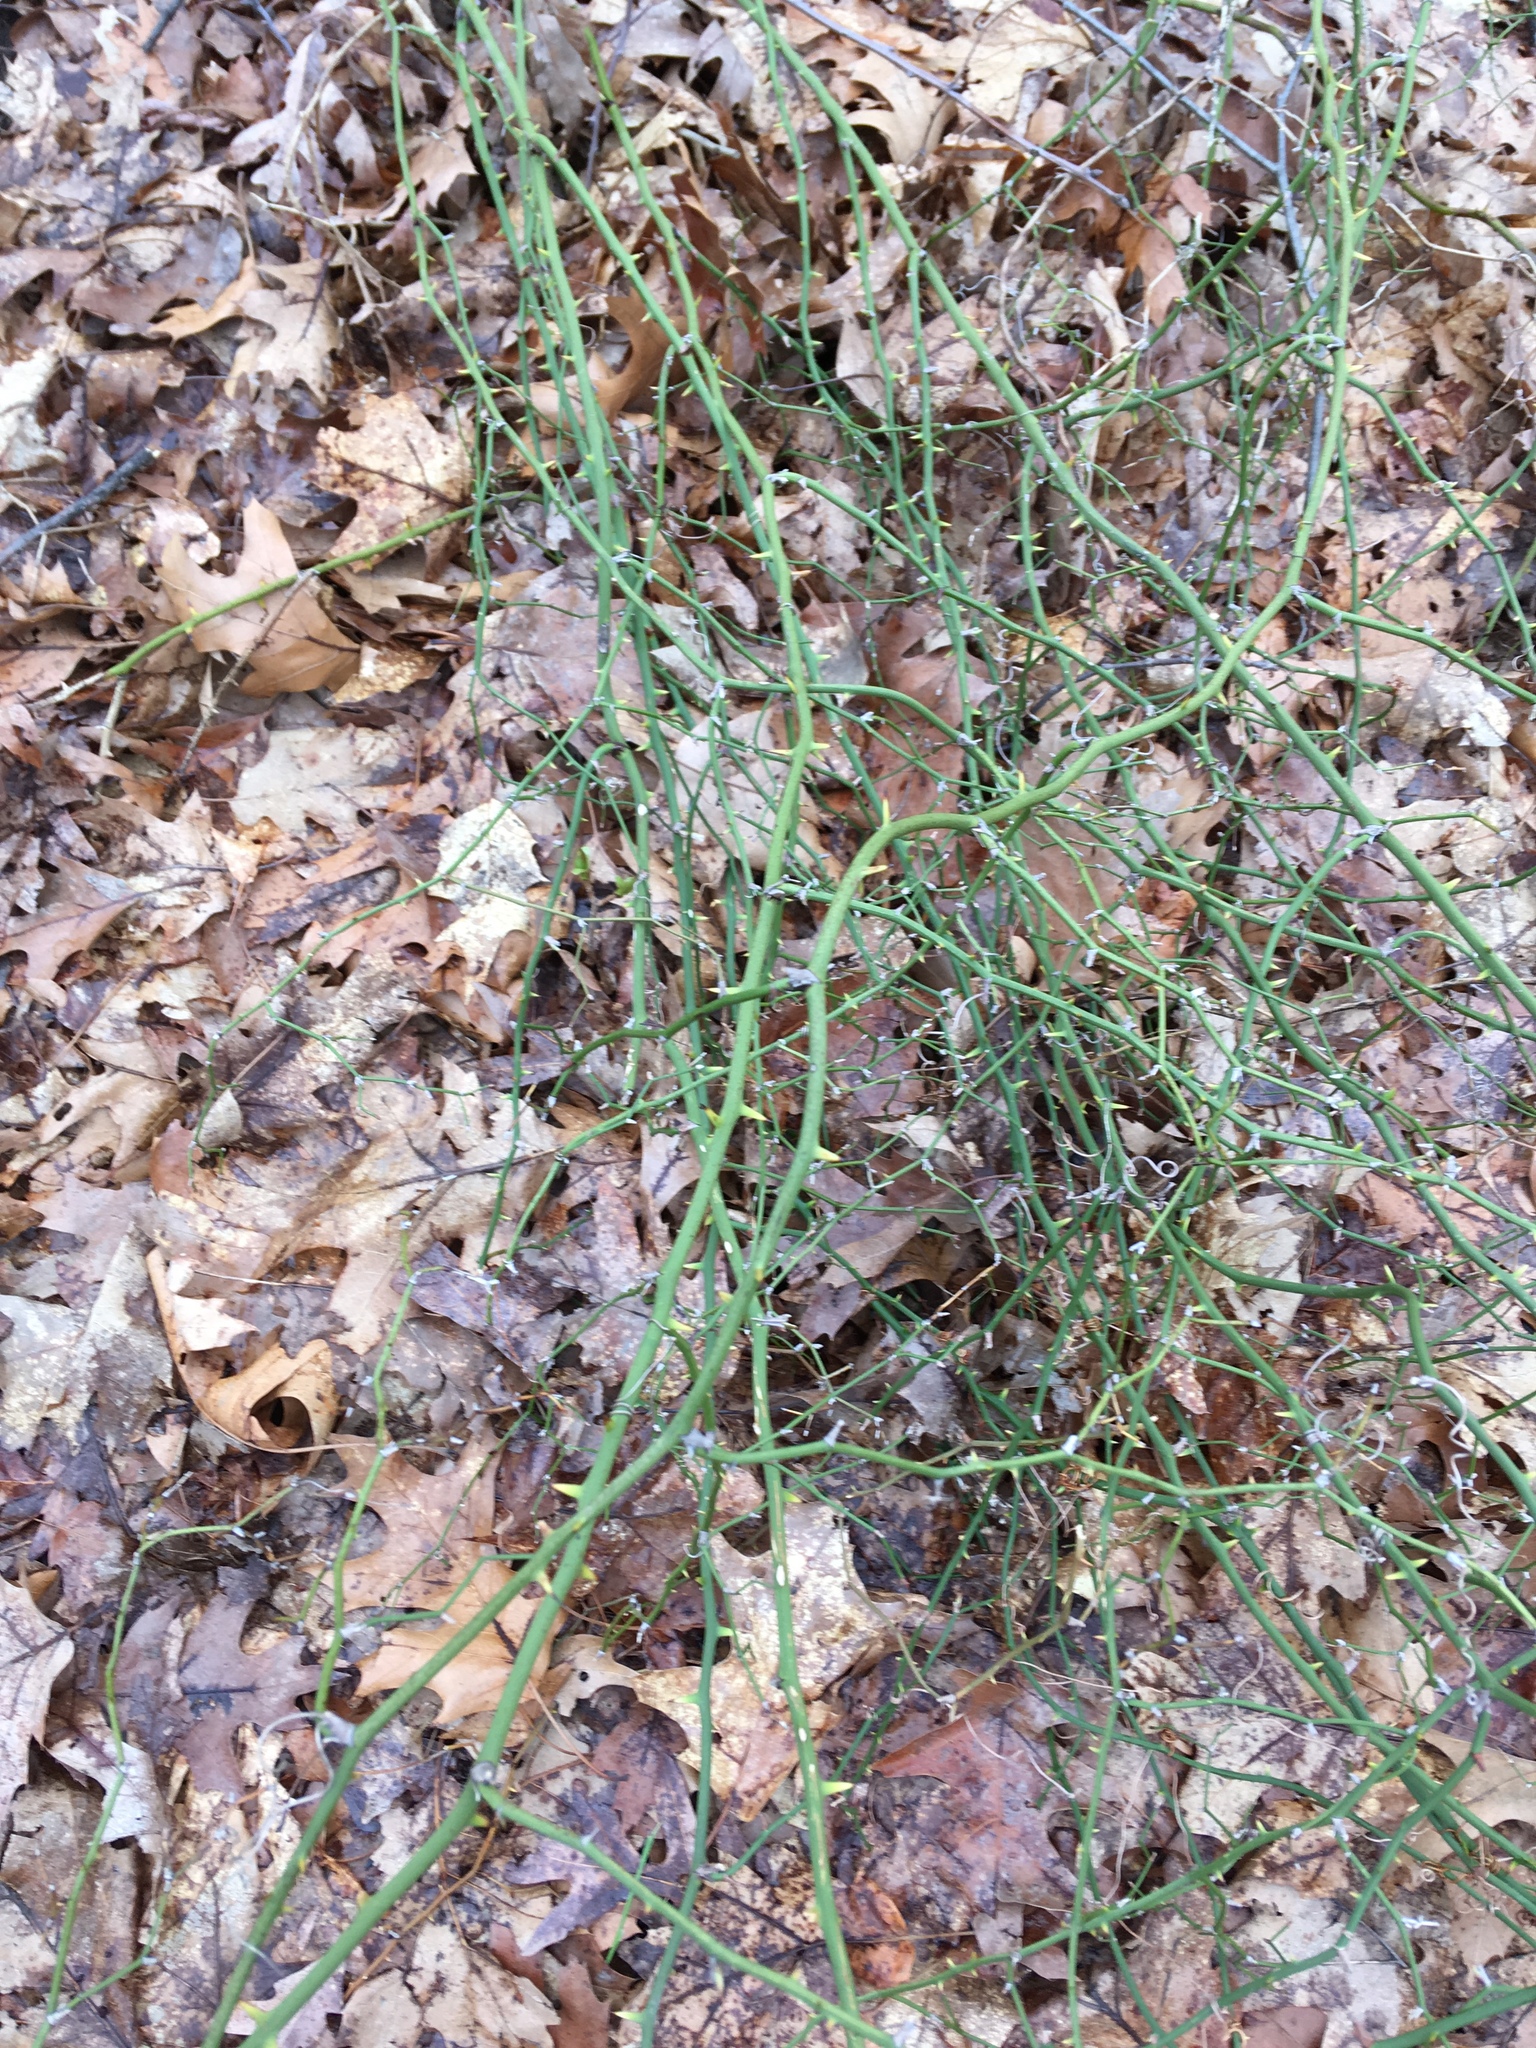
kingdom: Plantae
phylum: Tracheophyta
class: Liliopsida
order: Liliales
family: Smilacaceae
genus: Smilax
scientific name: Smilax rotundifolia
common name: Bullbriar
